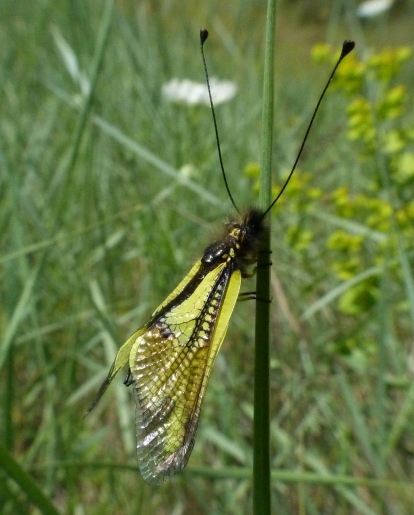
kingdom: Animalia
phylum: Arthropoda
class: Insecta
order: Neuroptera
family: Ascalaphidae
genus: Libelloides
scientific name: Libelloides cunii
